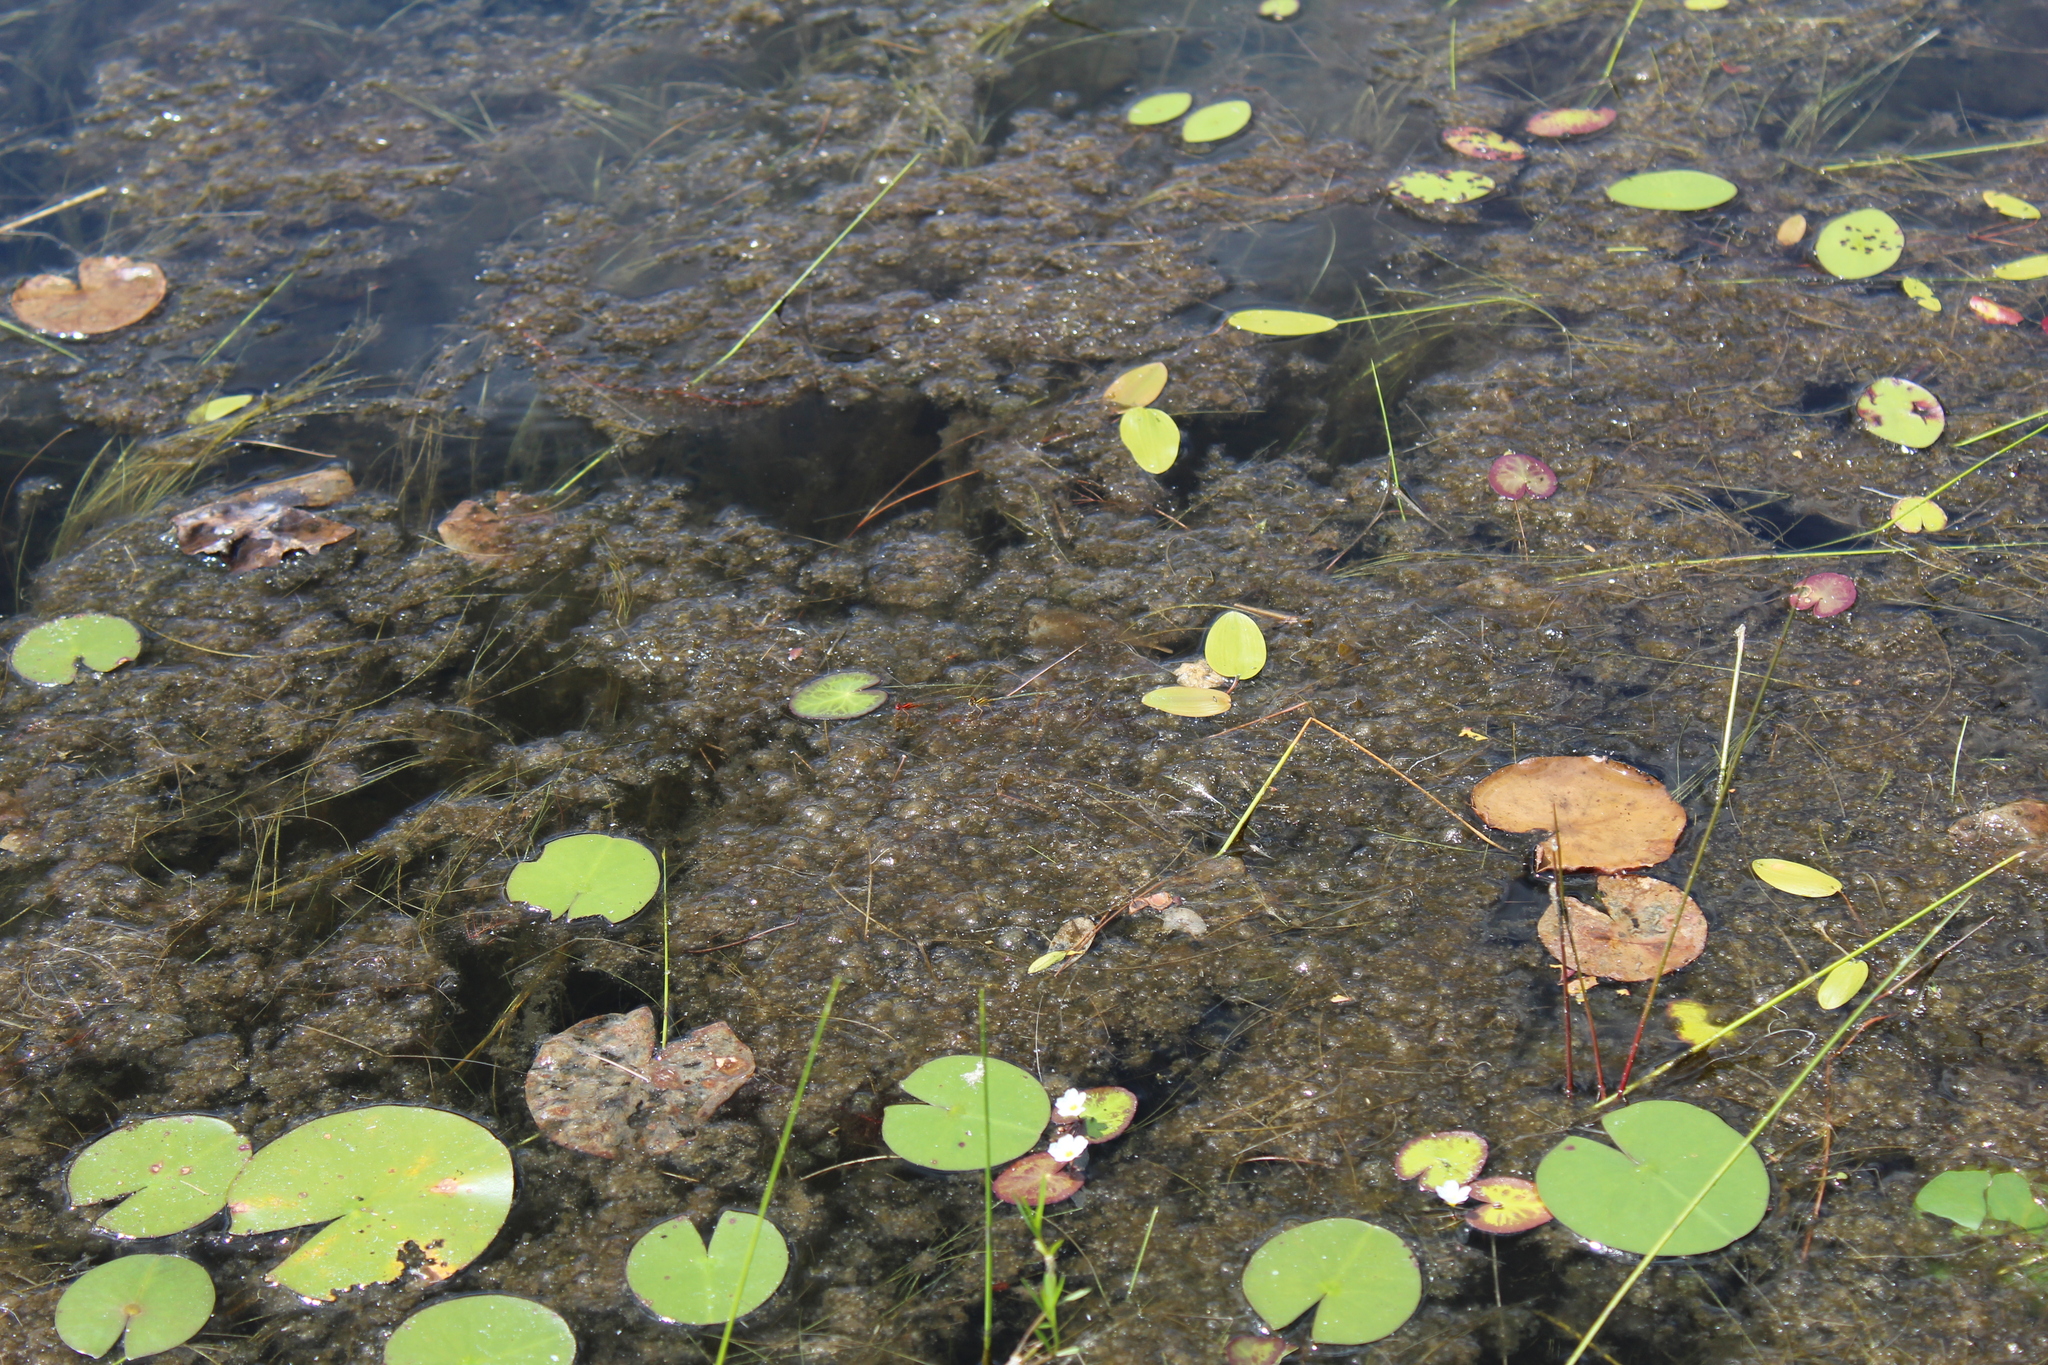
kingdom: Animalia
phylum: Arthropoda
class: Insecta
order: Odonata
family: Coenagrionidae
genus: Enallagma
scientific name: Enallagma pictum
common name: Scarlet bluet
